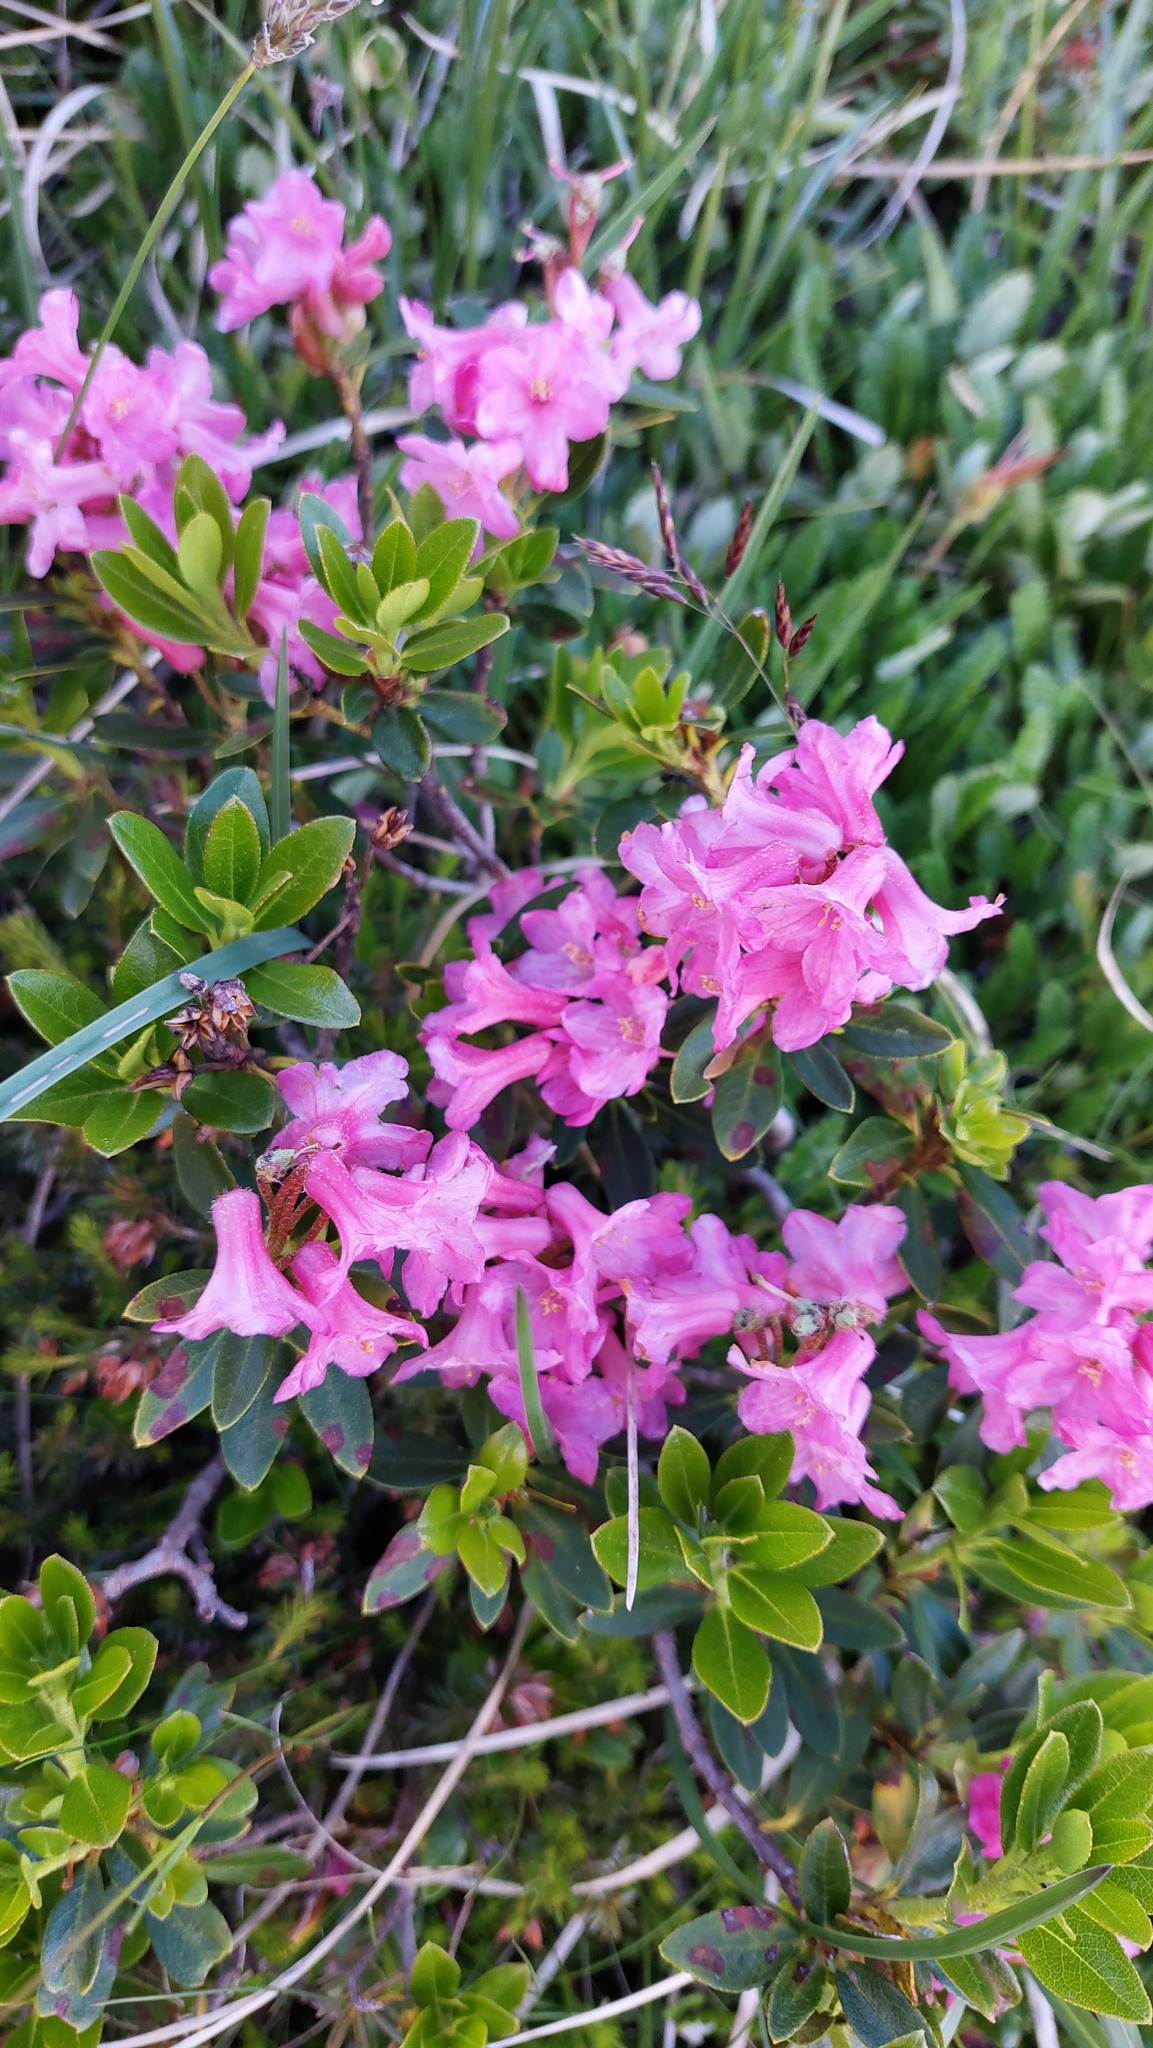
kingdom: Plantae
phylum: Tracheophyta
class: Magnoliopsida
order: Ericales
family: Ericaceae
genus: Rhododendron
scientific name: Rhododendron hirsutum
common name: Hairy alpenrose
